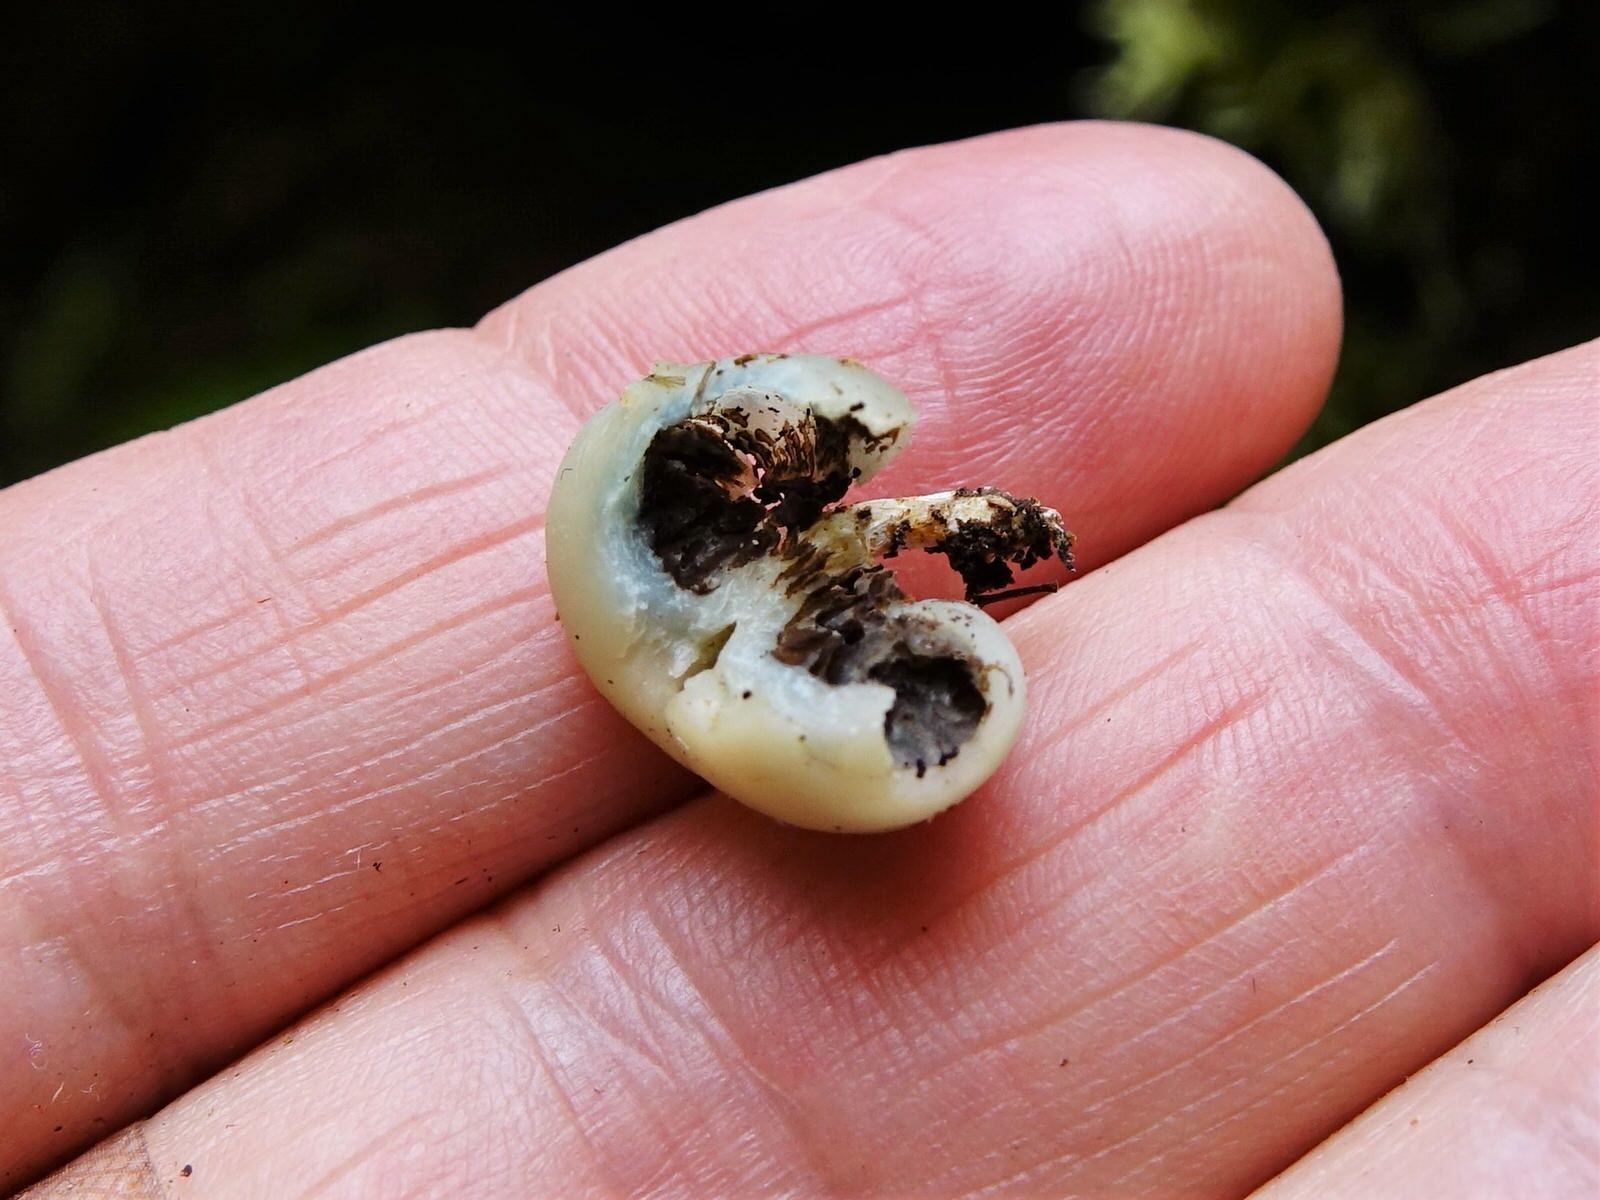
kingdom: Fungi
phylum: Basidiomycota
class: Agaricomycetes
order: Agaricales
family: Hymenogastraceae
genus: Psilocybe
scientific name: Psilocybe weraroa
